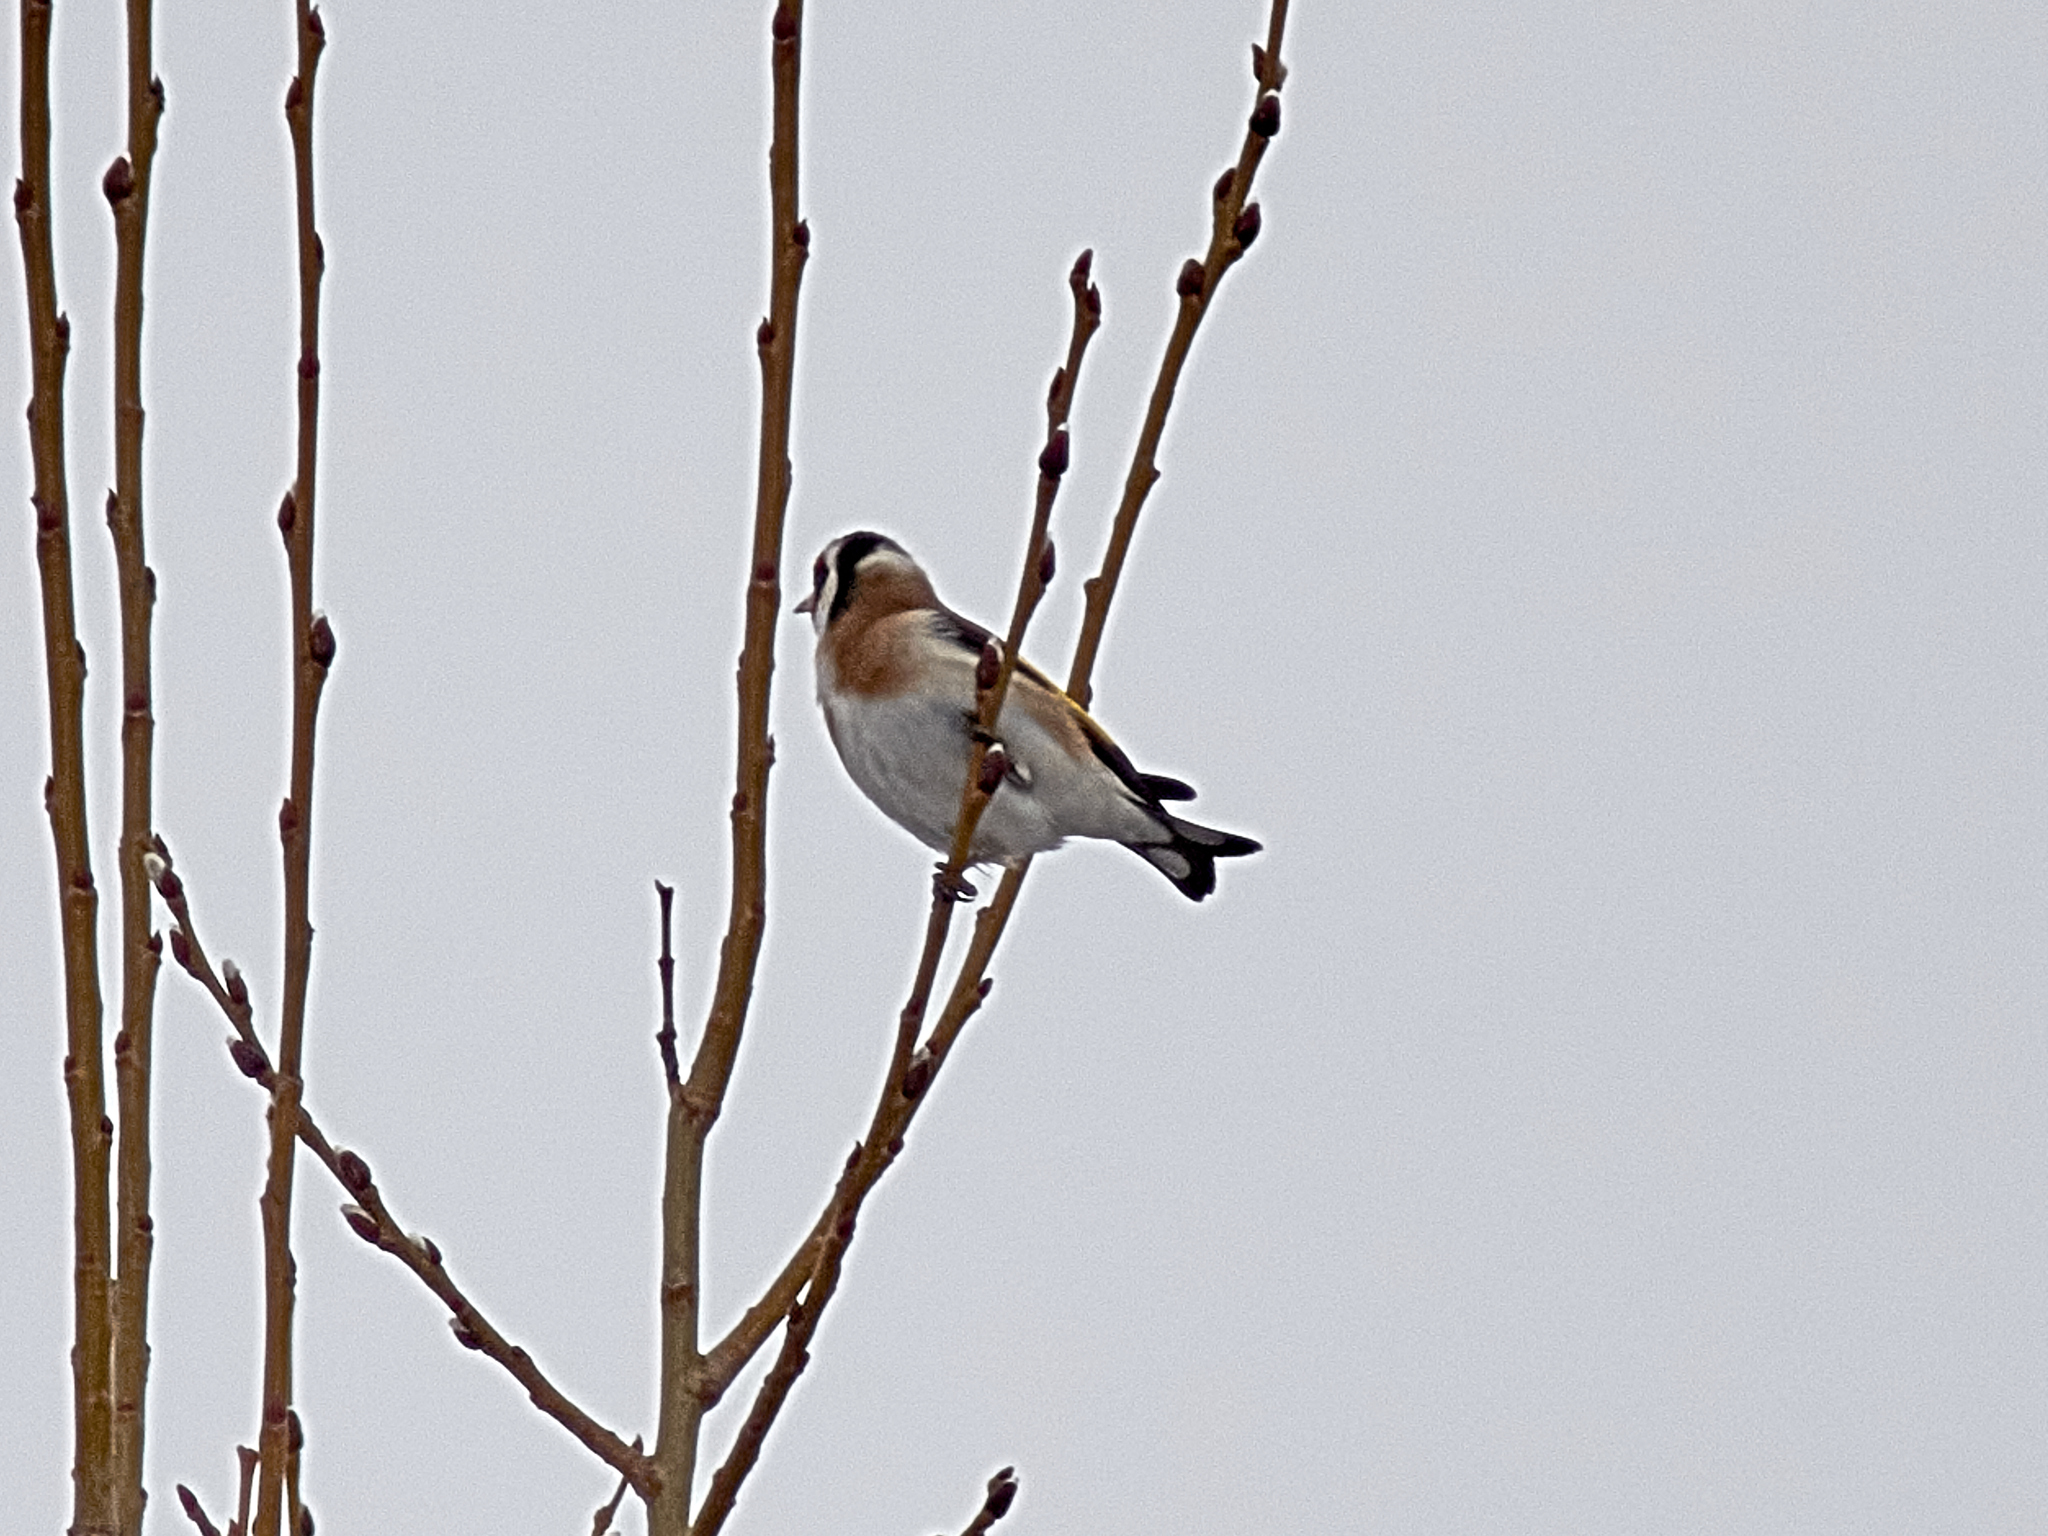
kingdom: Animalia
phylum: Chordata
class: Aves
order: Passeriformes
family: Fringillidae
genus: Carduelis
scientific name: Carduelis carduelis
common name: European goldfinch
